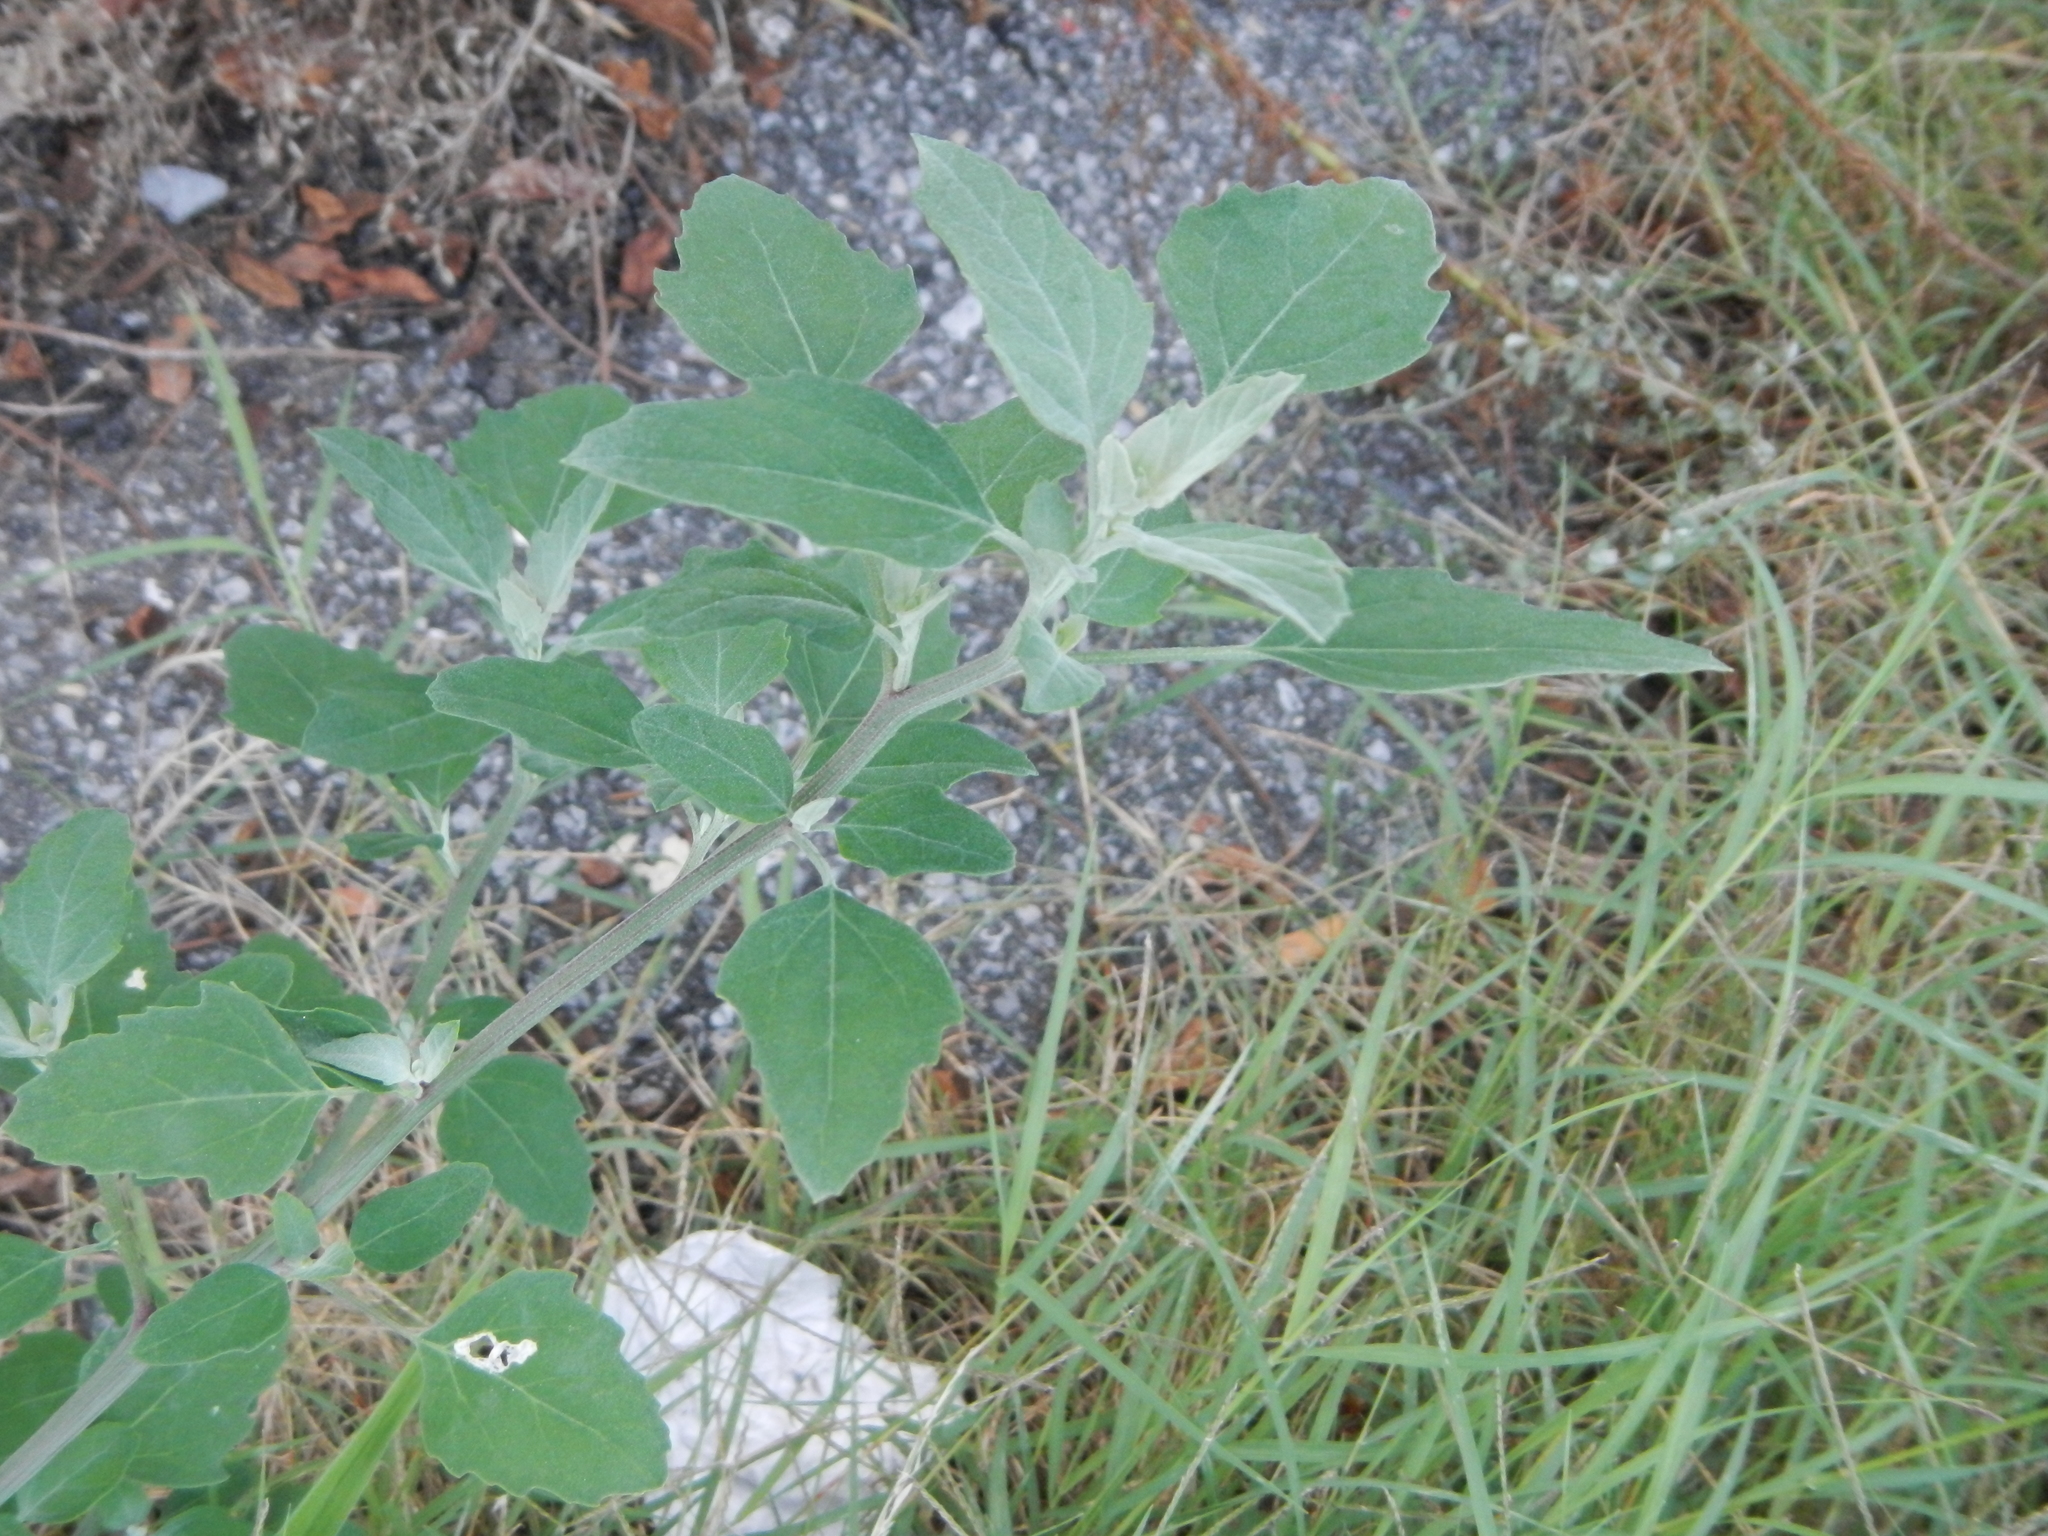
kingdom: Plantae
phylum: Tracheophyta
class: Magnoliopsida
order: Caryophyllales
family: Amaranthaceae
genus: Chenopodium
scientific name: Chenopodium album
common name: Fat-hen
